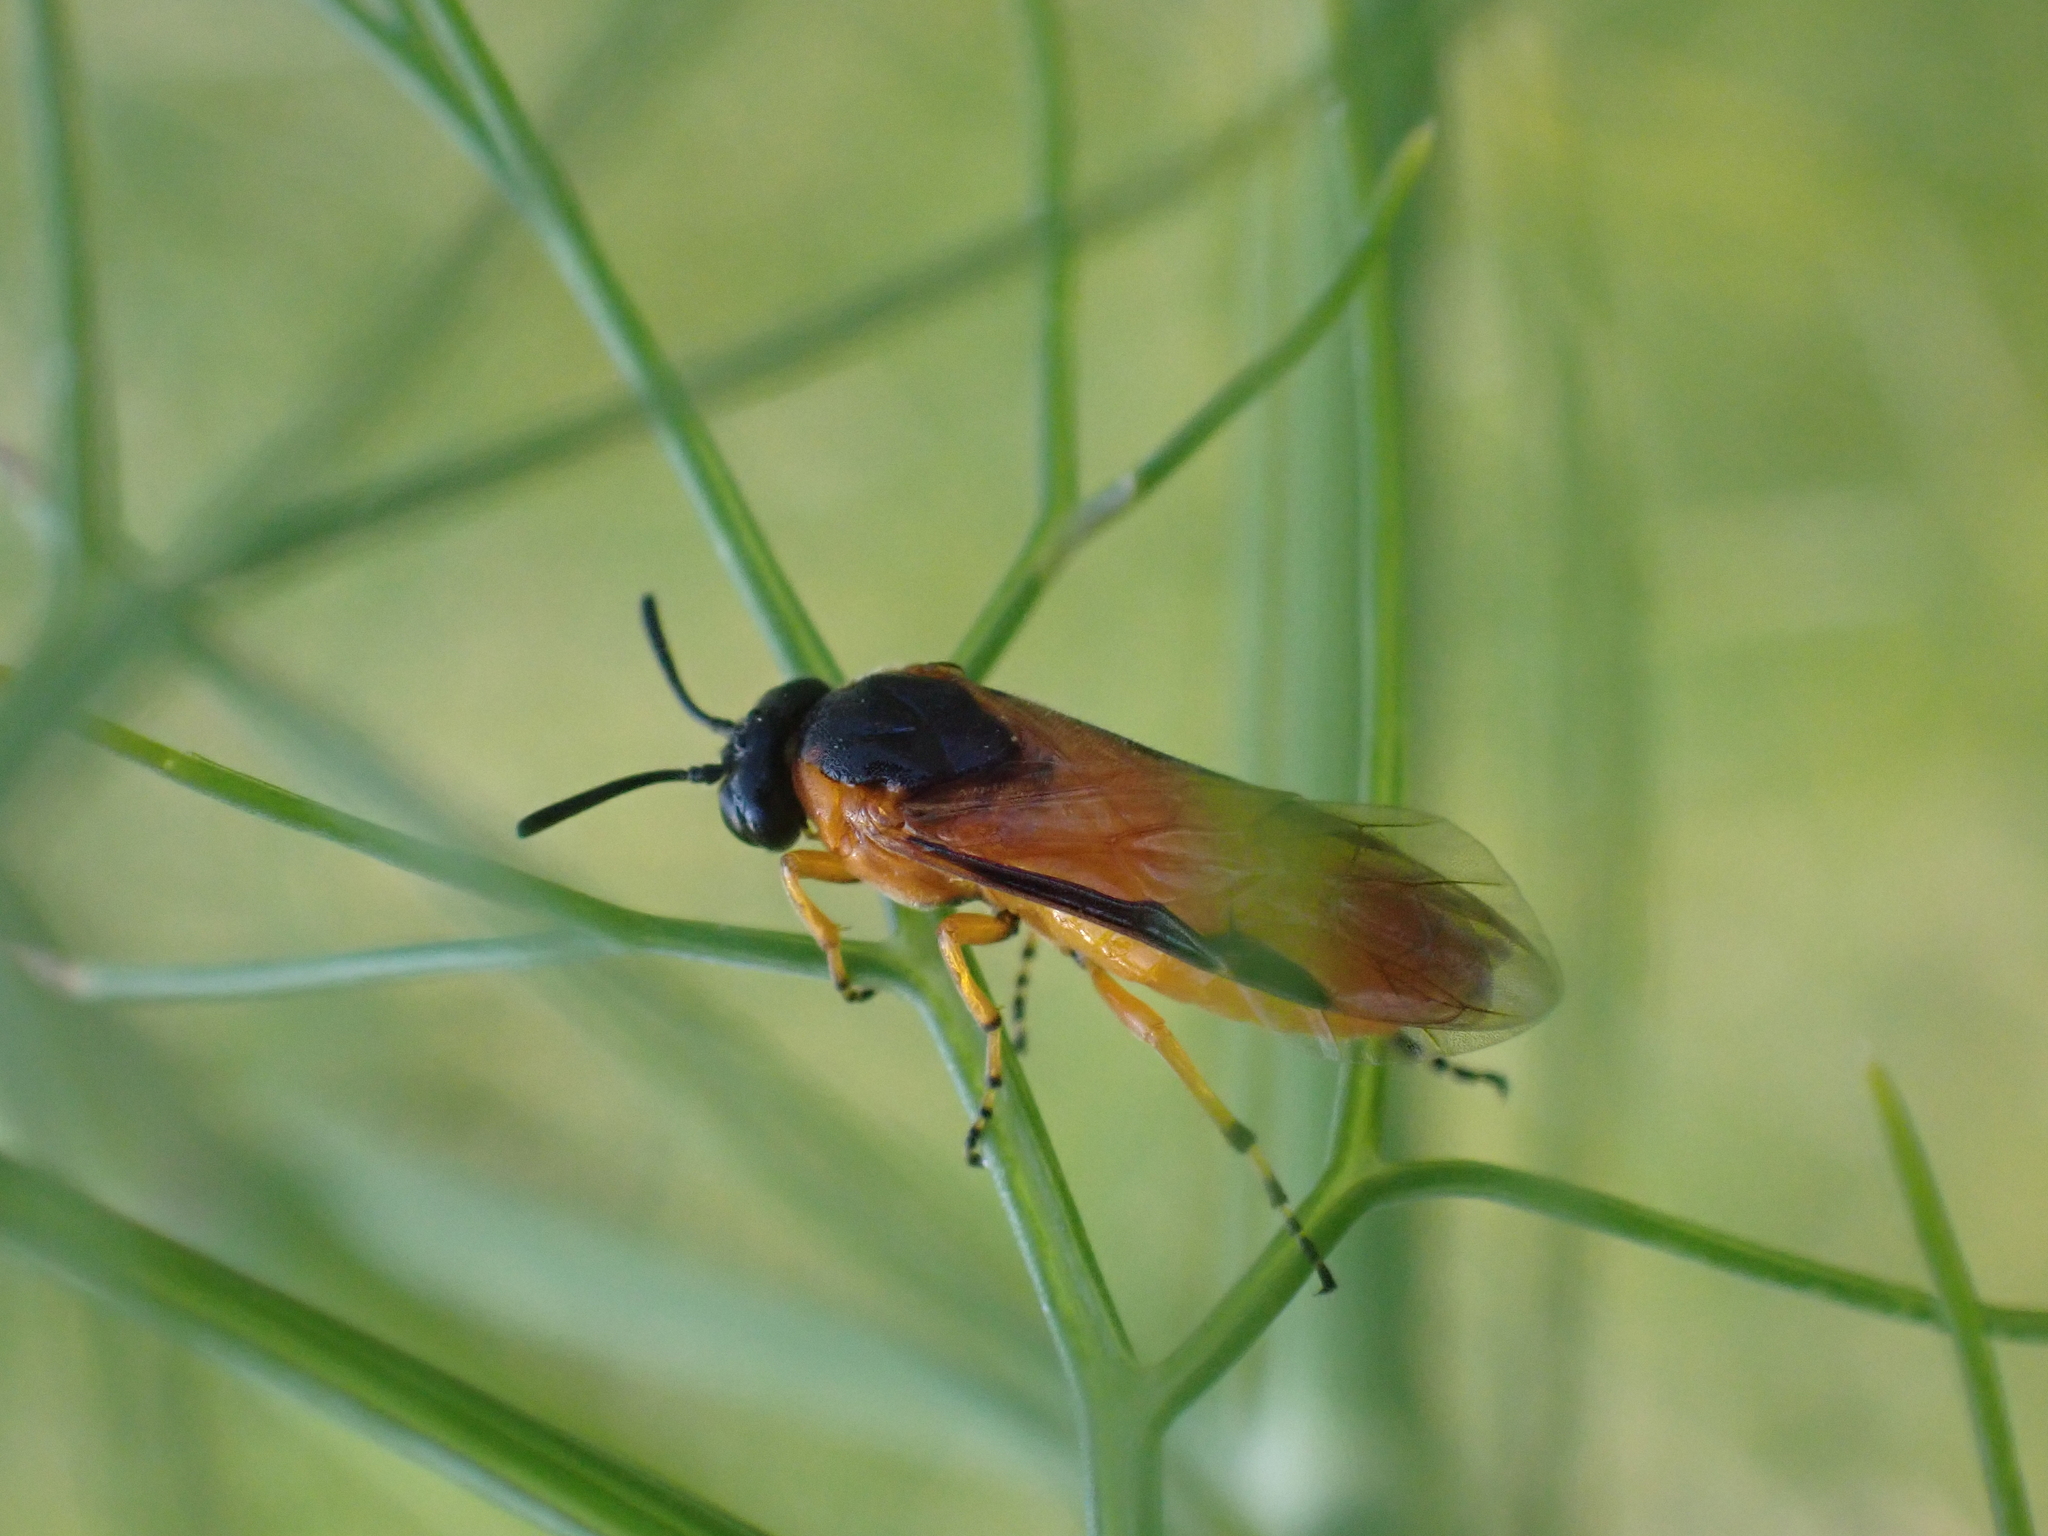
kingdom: Animalia
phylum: Arthropoda
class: Insecta
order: Hymenoptera
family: Argidae
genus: Arge
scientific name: Arge ochropus
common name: Argid sawfly
